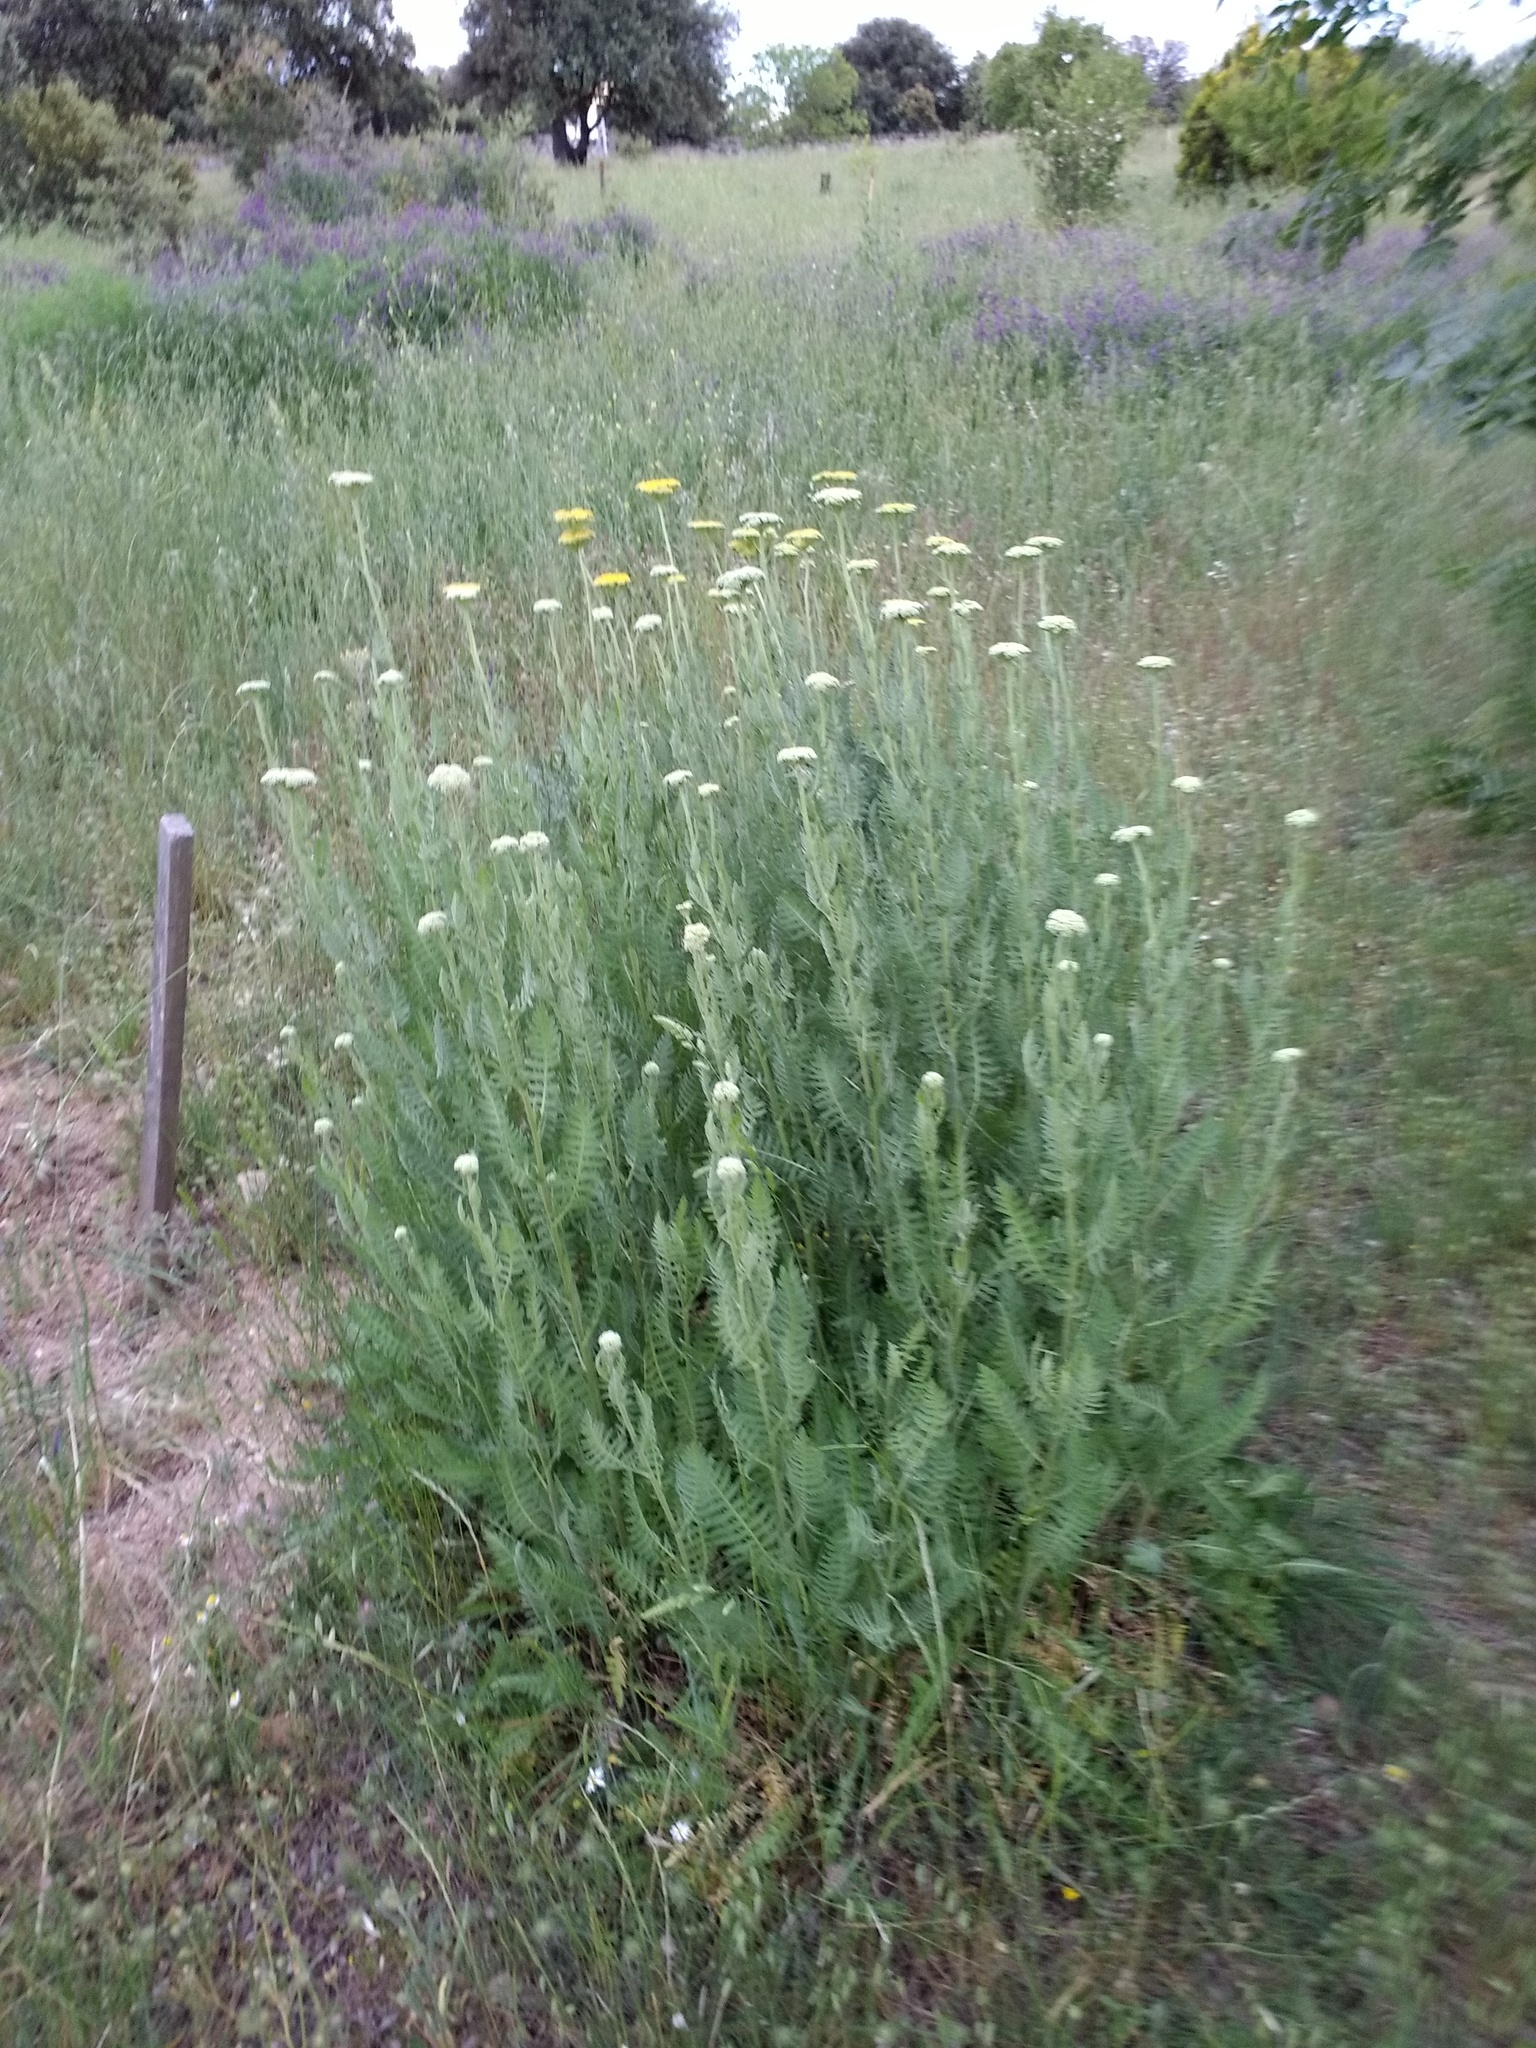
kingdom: Plantae
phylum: Tracheophyta
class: Magnoliopsida
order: Asterales
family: Asteraceae
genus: Achillea
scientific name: Achillea filipendulina
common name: Fernleaf yarrow
